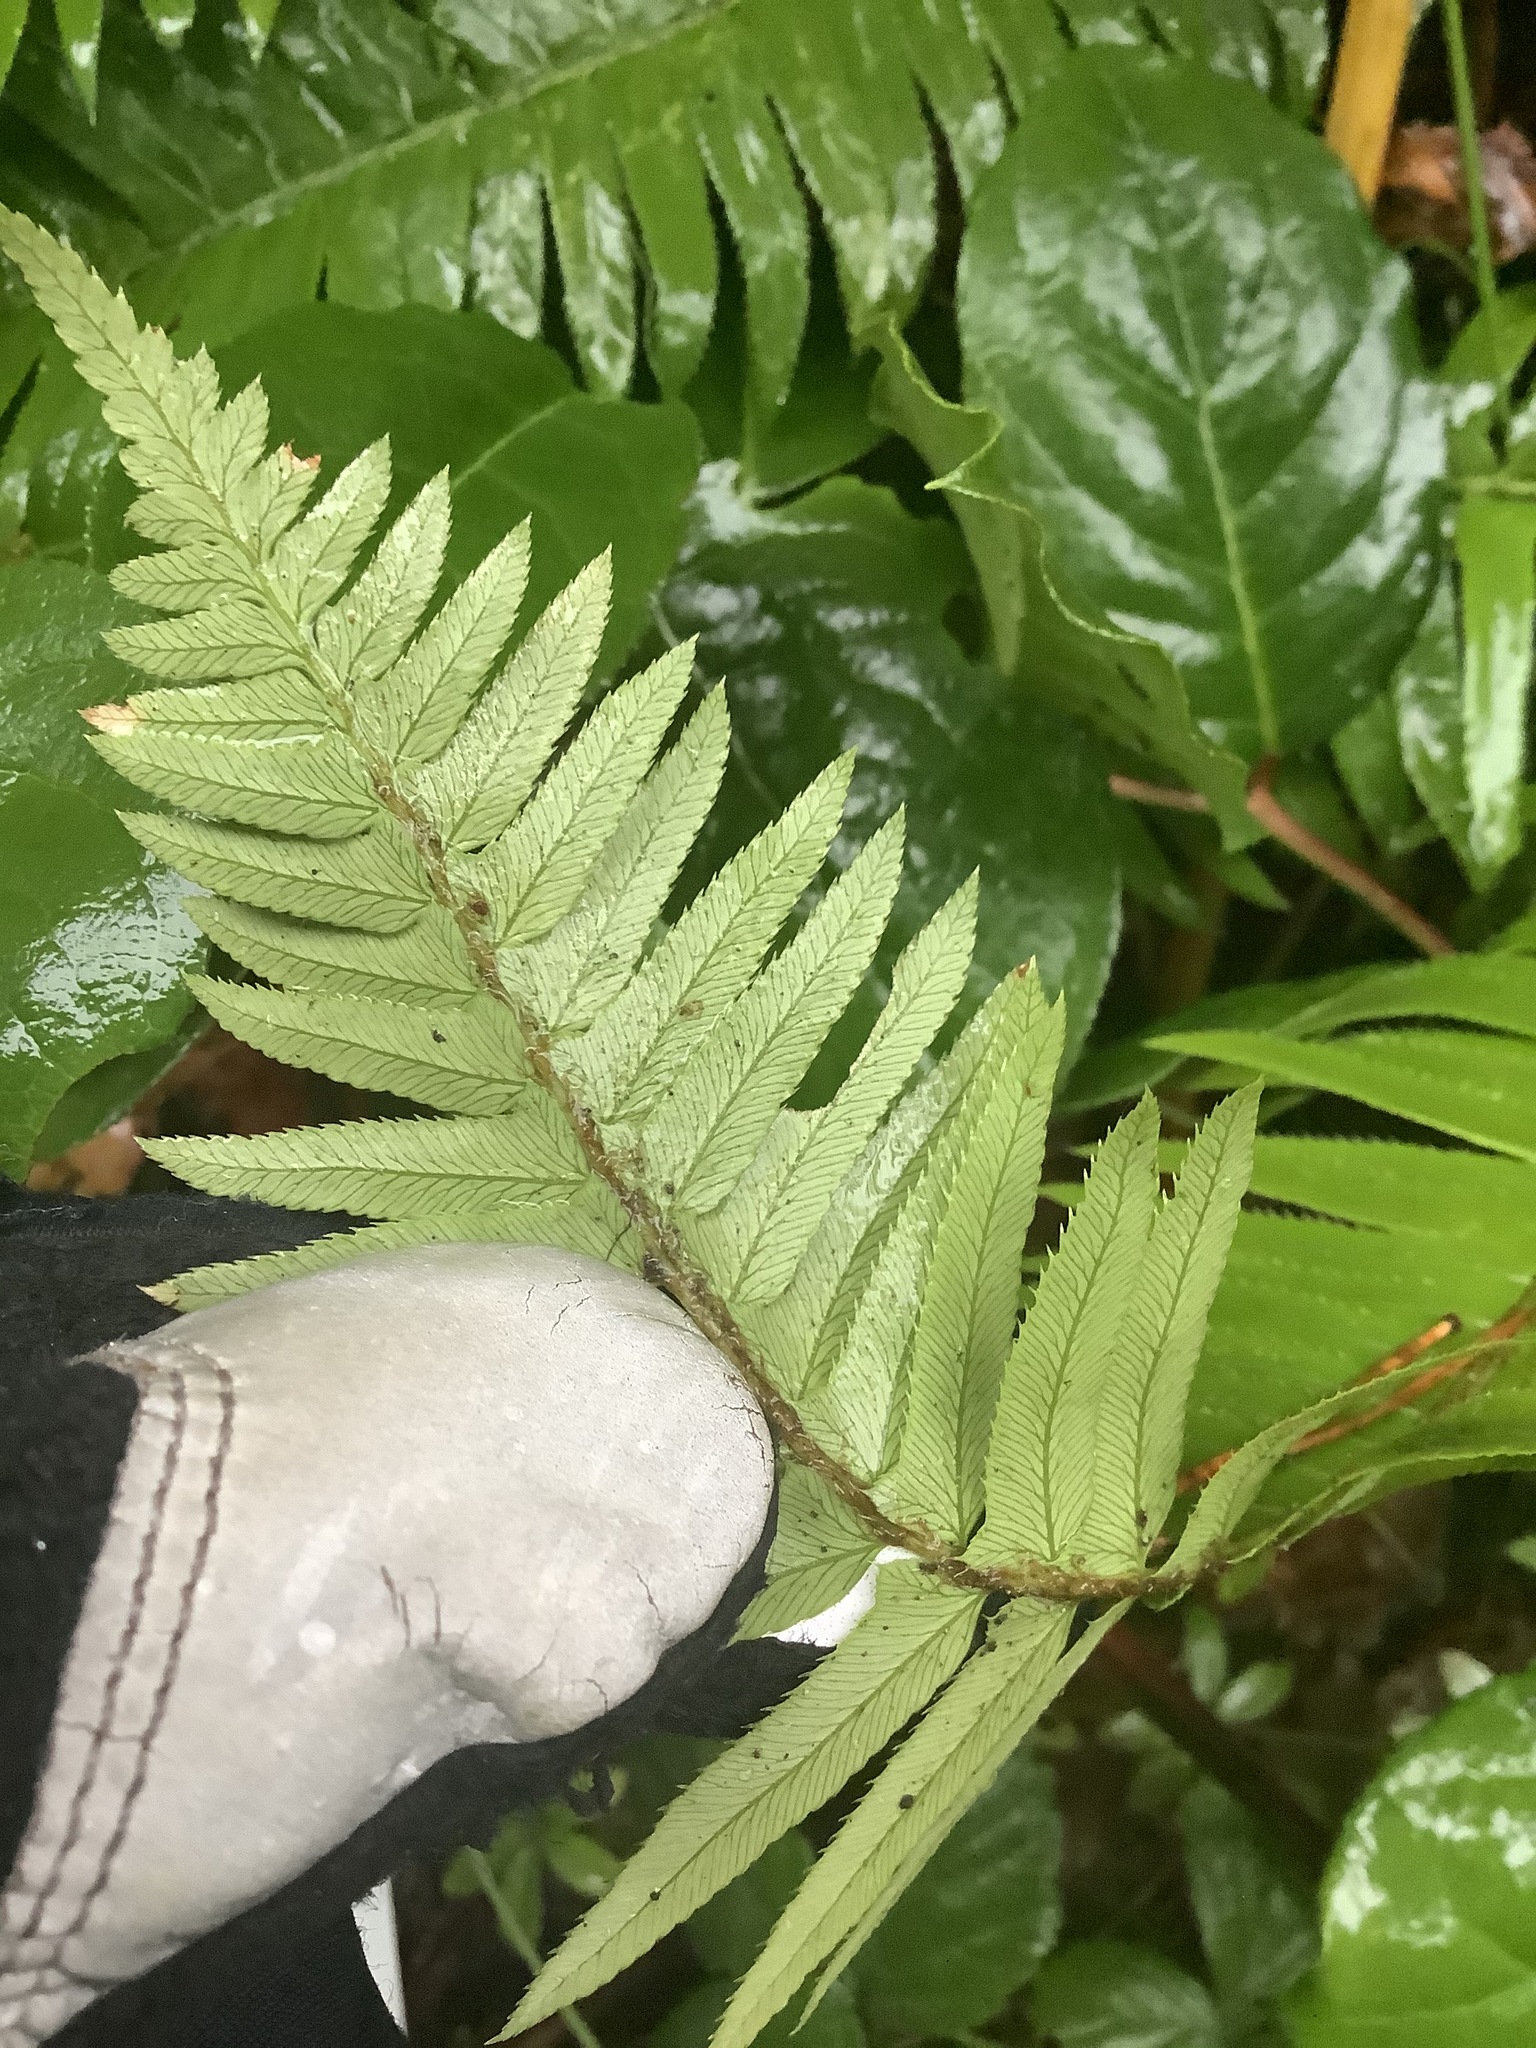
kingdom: Plantae
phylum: Tracheophyta
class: Polypodiopsida
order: Polypodiales
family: Dryopteridaceae
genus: Polystichum
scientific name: Polystichum munitum
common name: Western sword-fern
